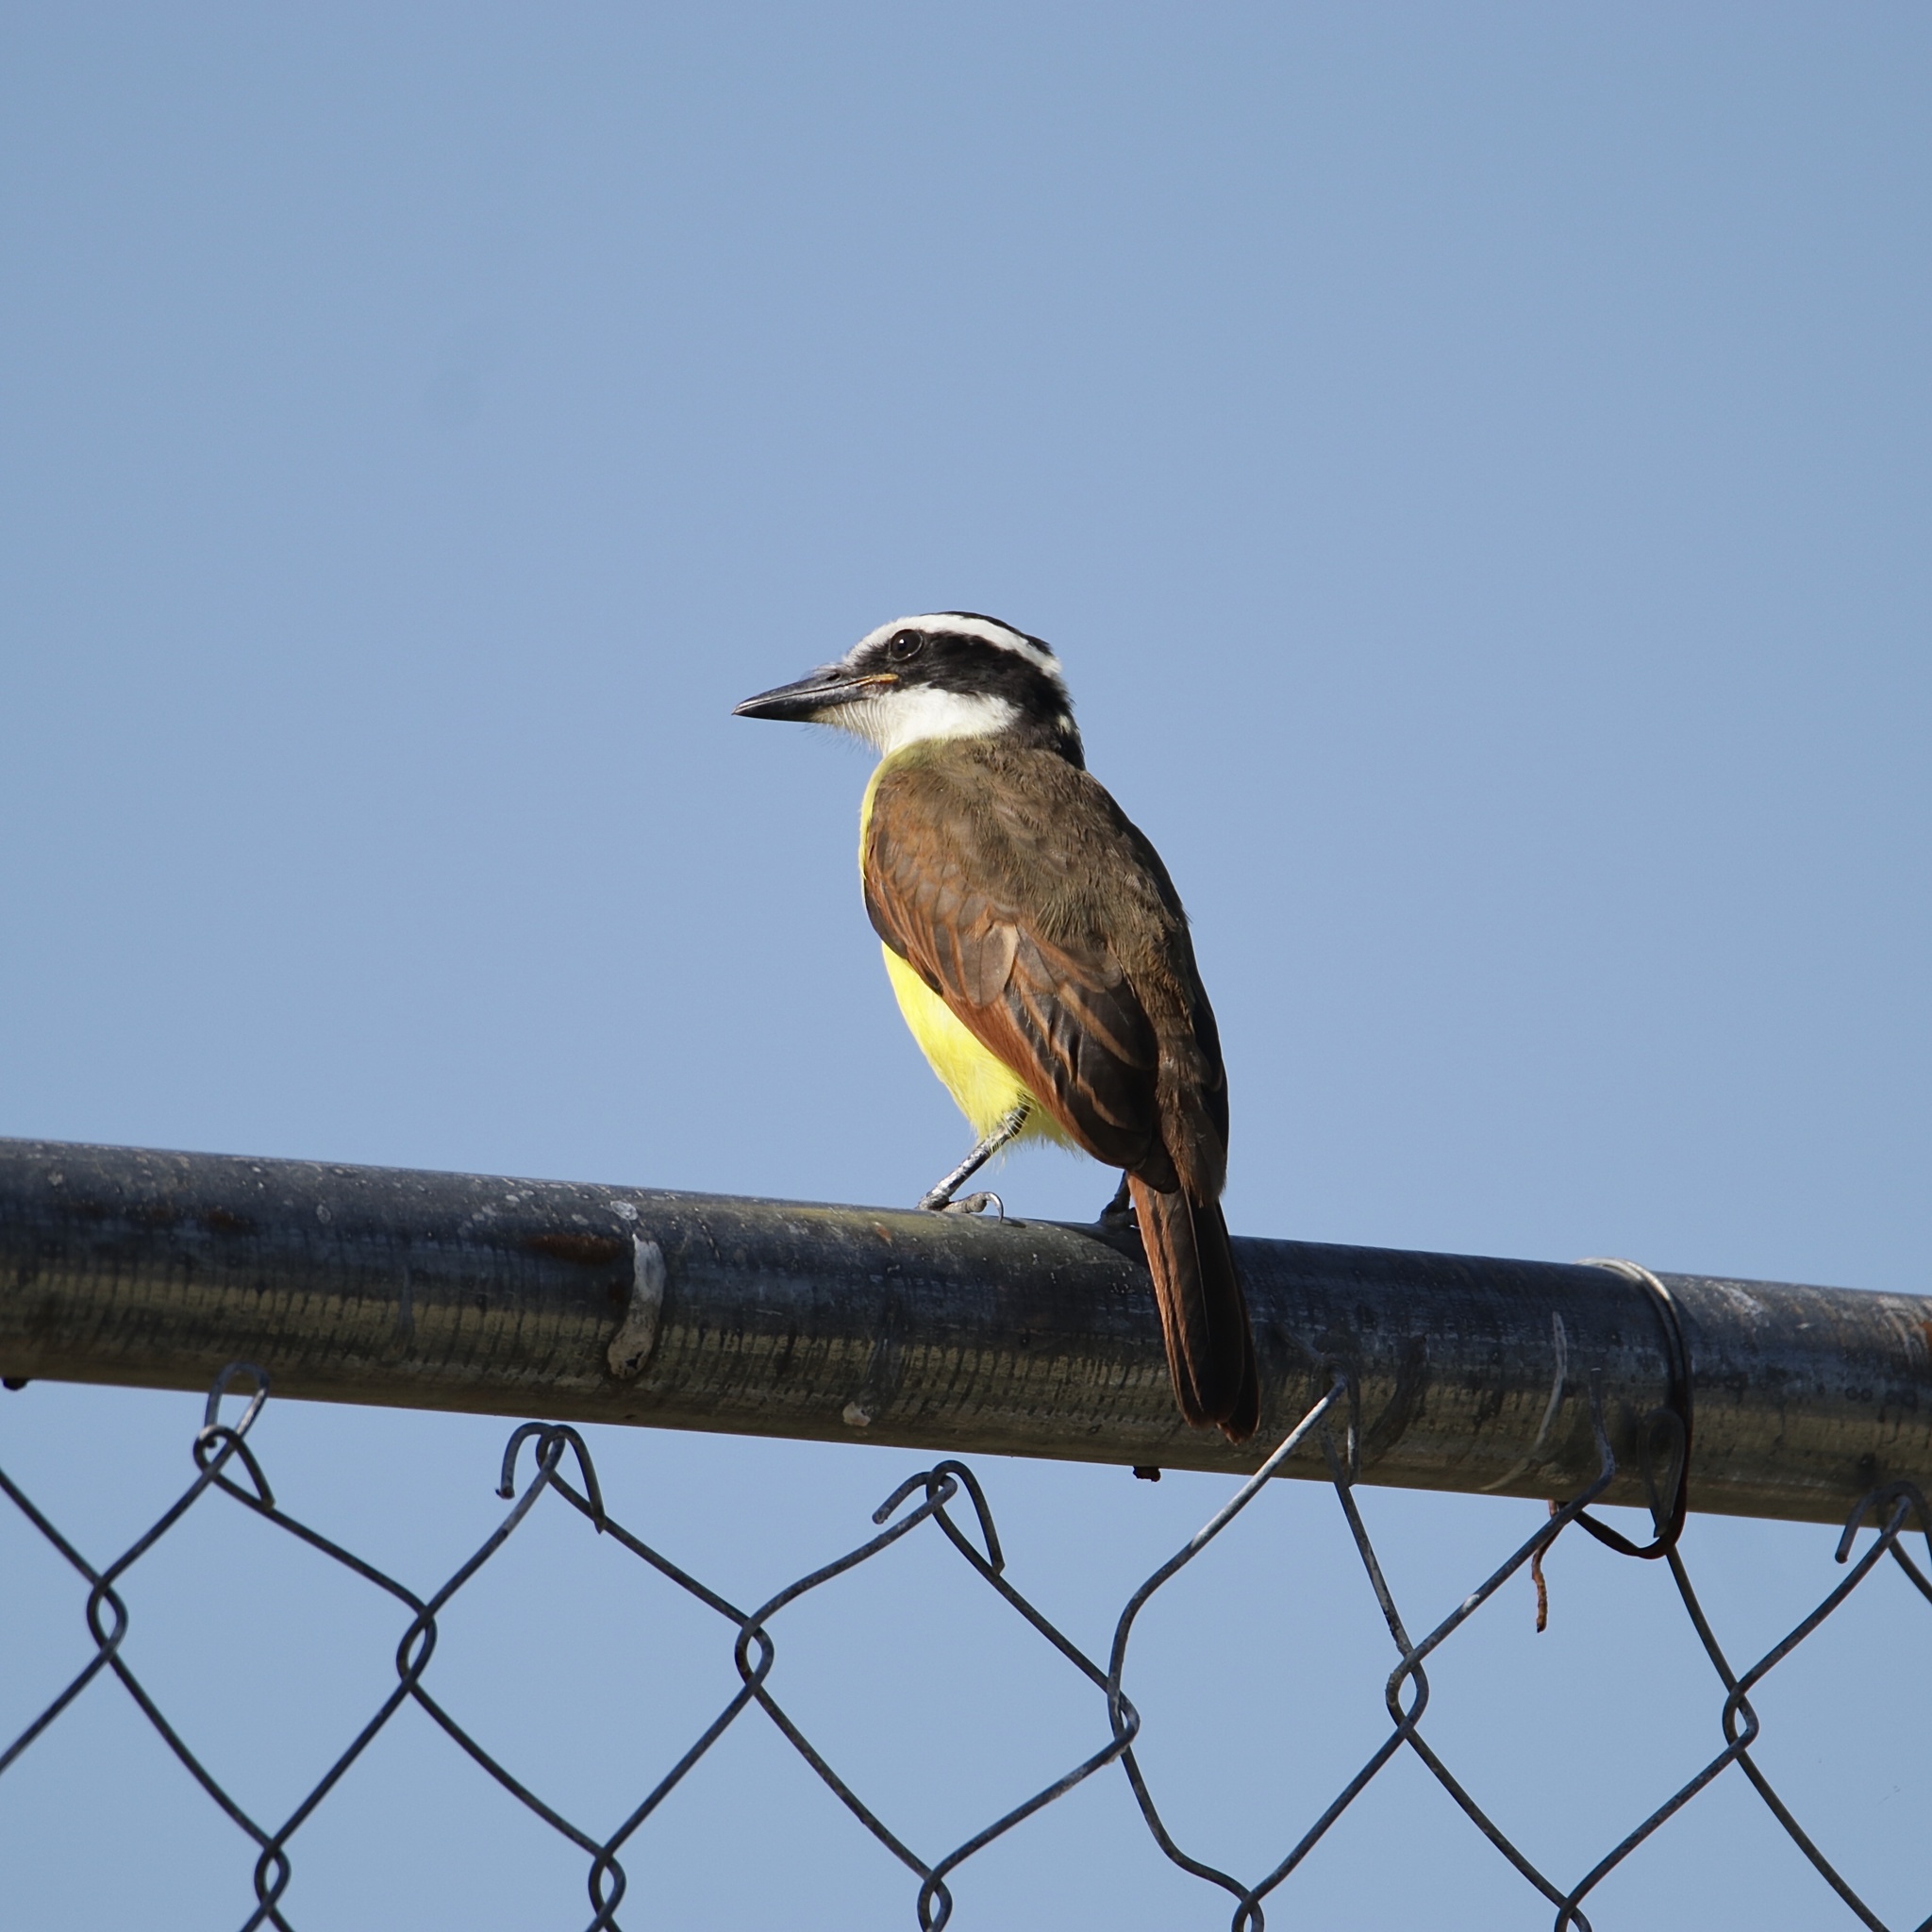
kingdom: Animalia
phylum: Chordata
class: Aves
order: Passeriformes
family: Tyrannidae
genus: Pitangus
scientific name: Pitangus sulphuratus
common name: Great kiskadee
